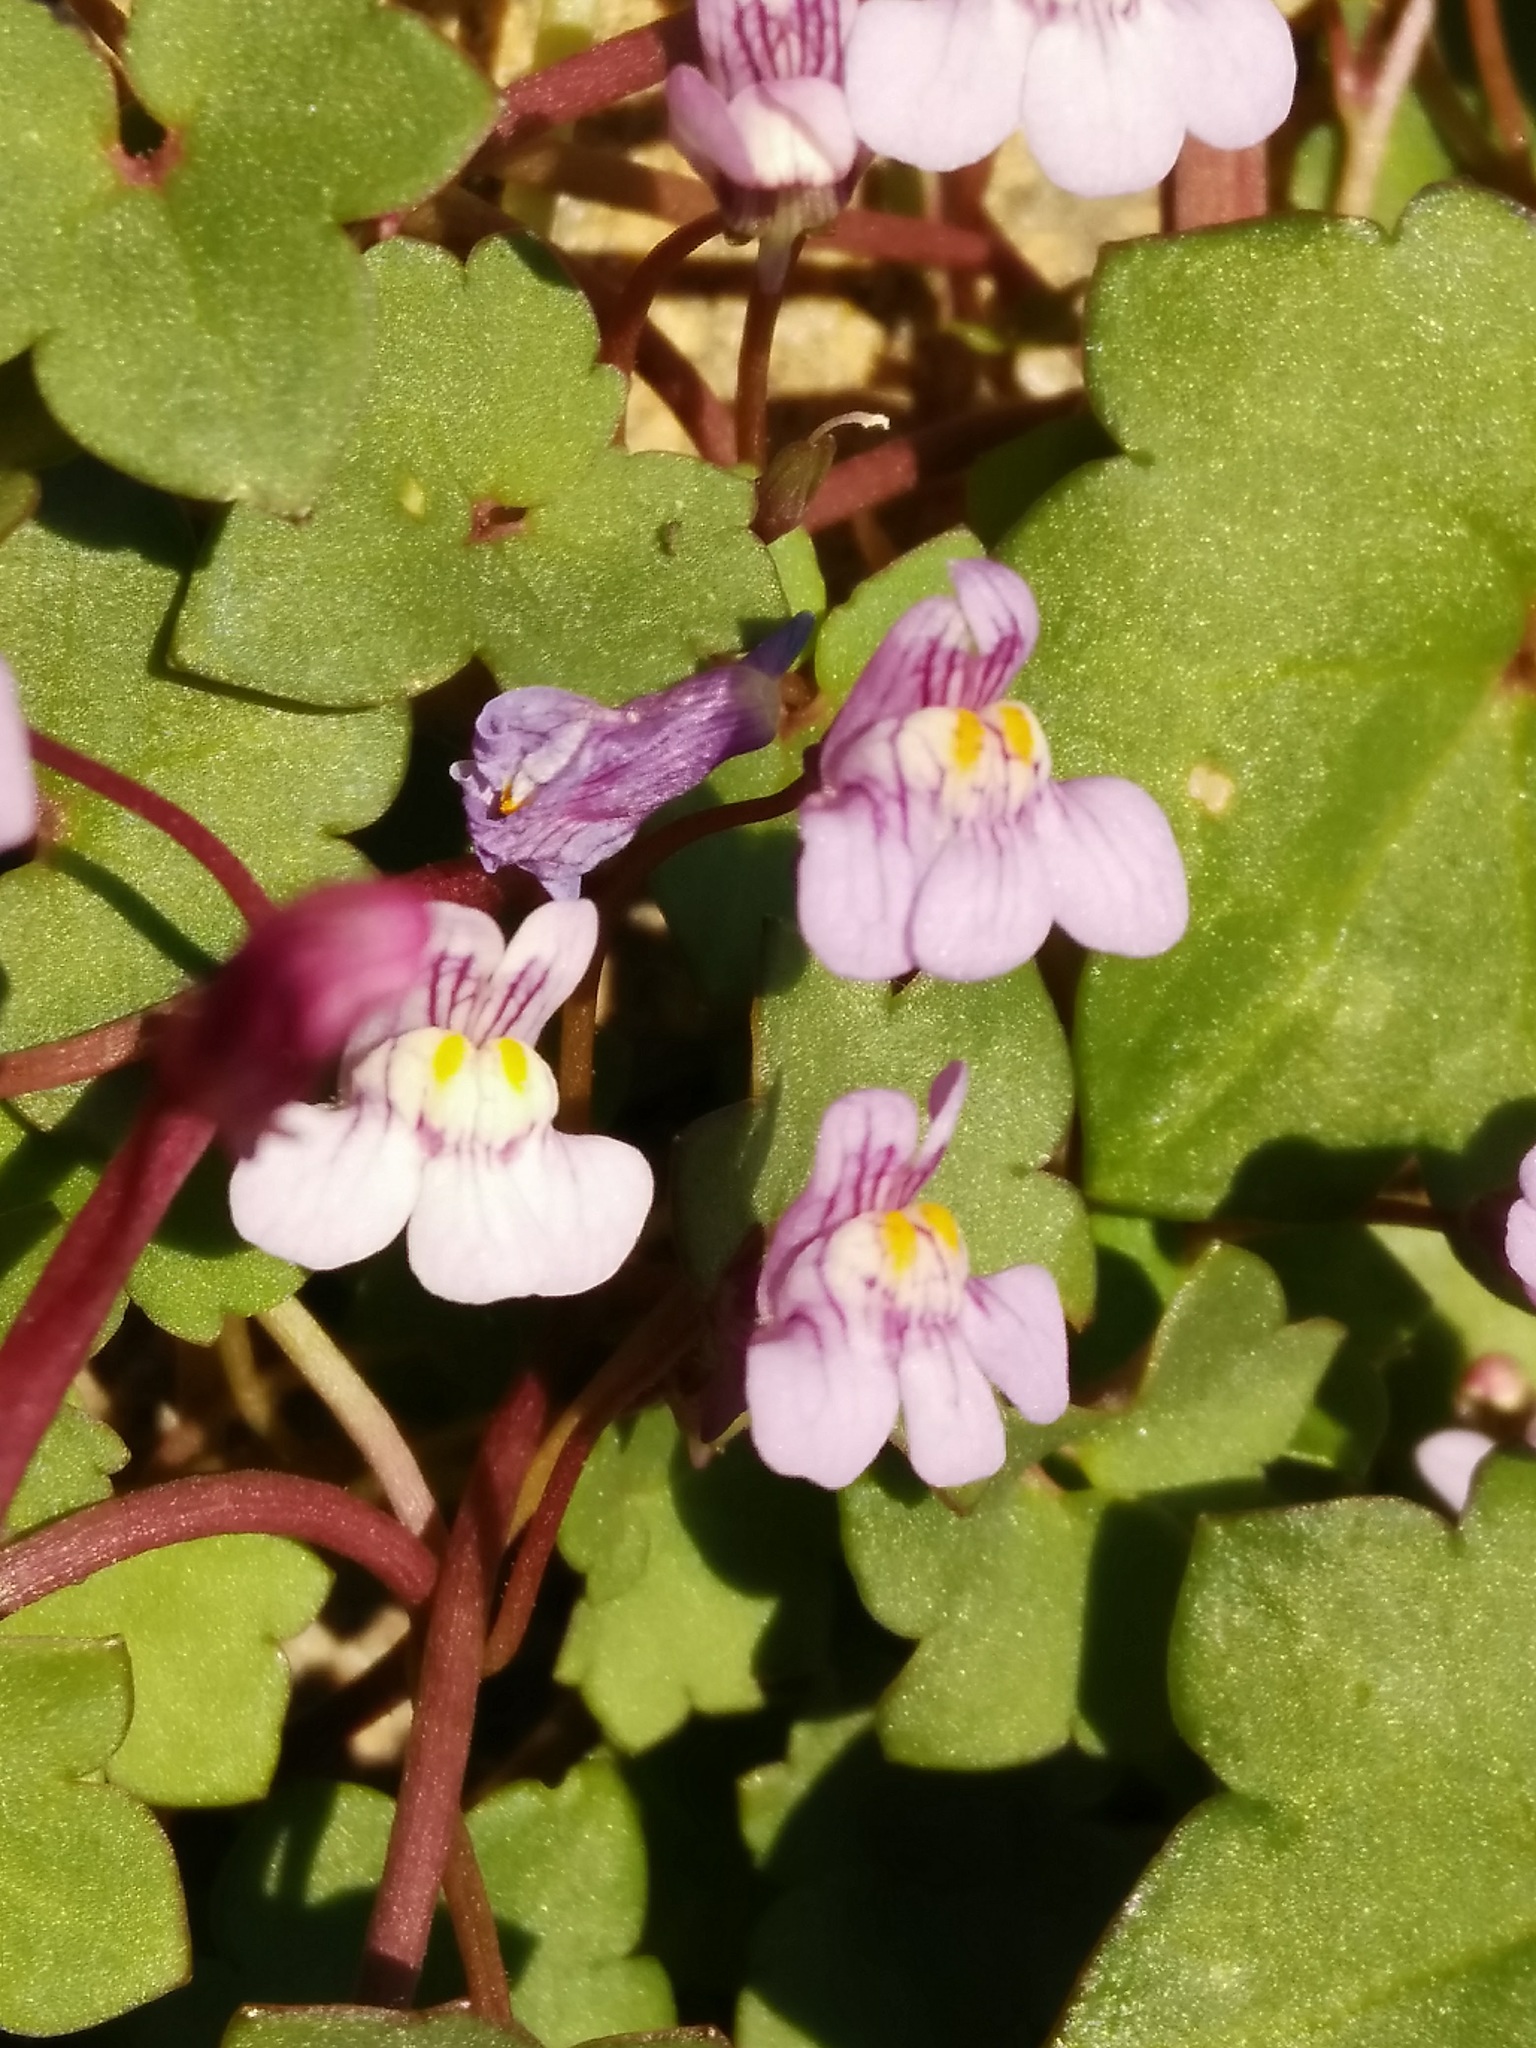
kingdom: Plantae
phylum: Tracheophyta
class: Magnoliopsida
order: Lamiales
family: Plantaginaceae
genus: Cymbalaria
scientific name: Cymbalaria muralis
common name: Ivy-leaved toadflax
